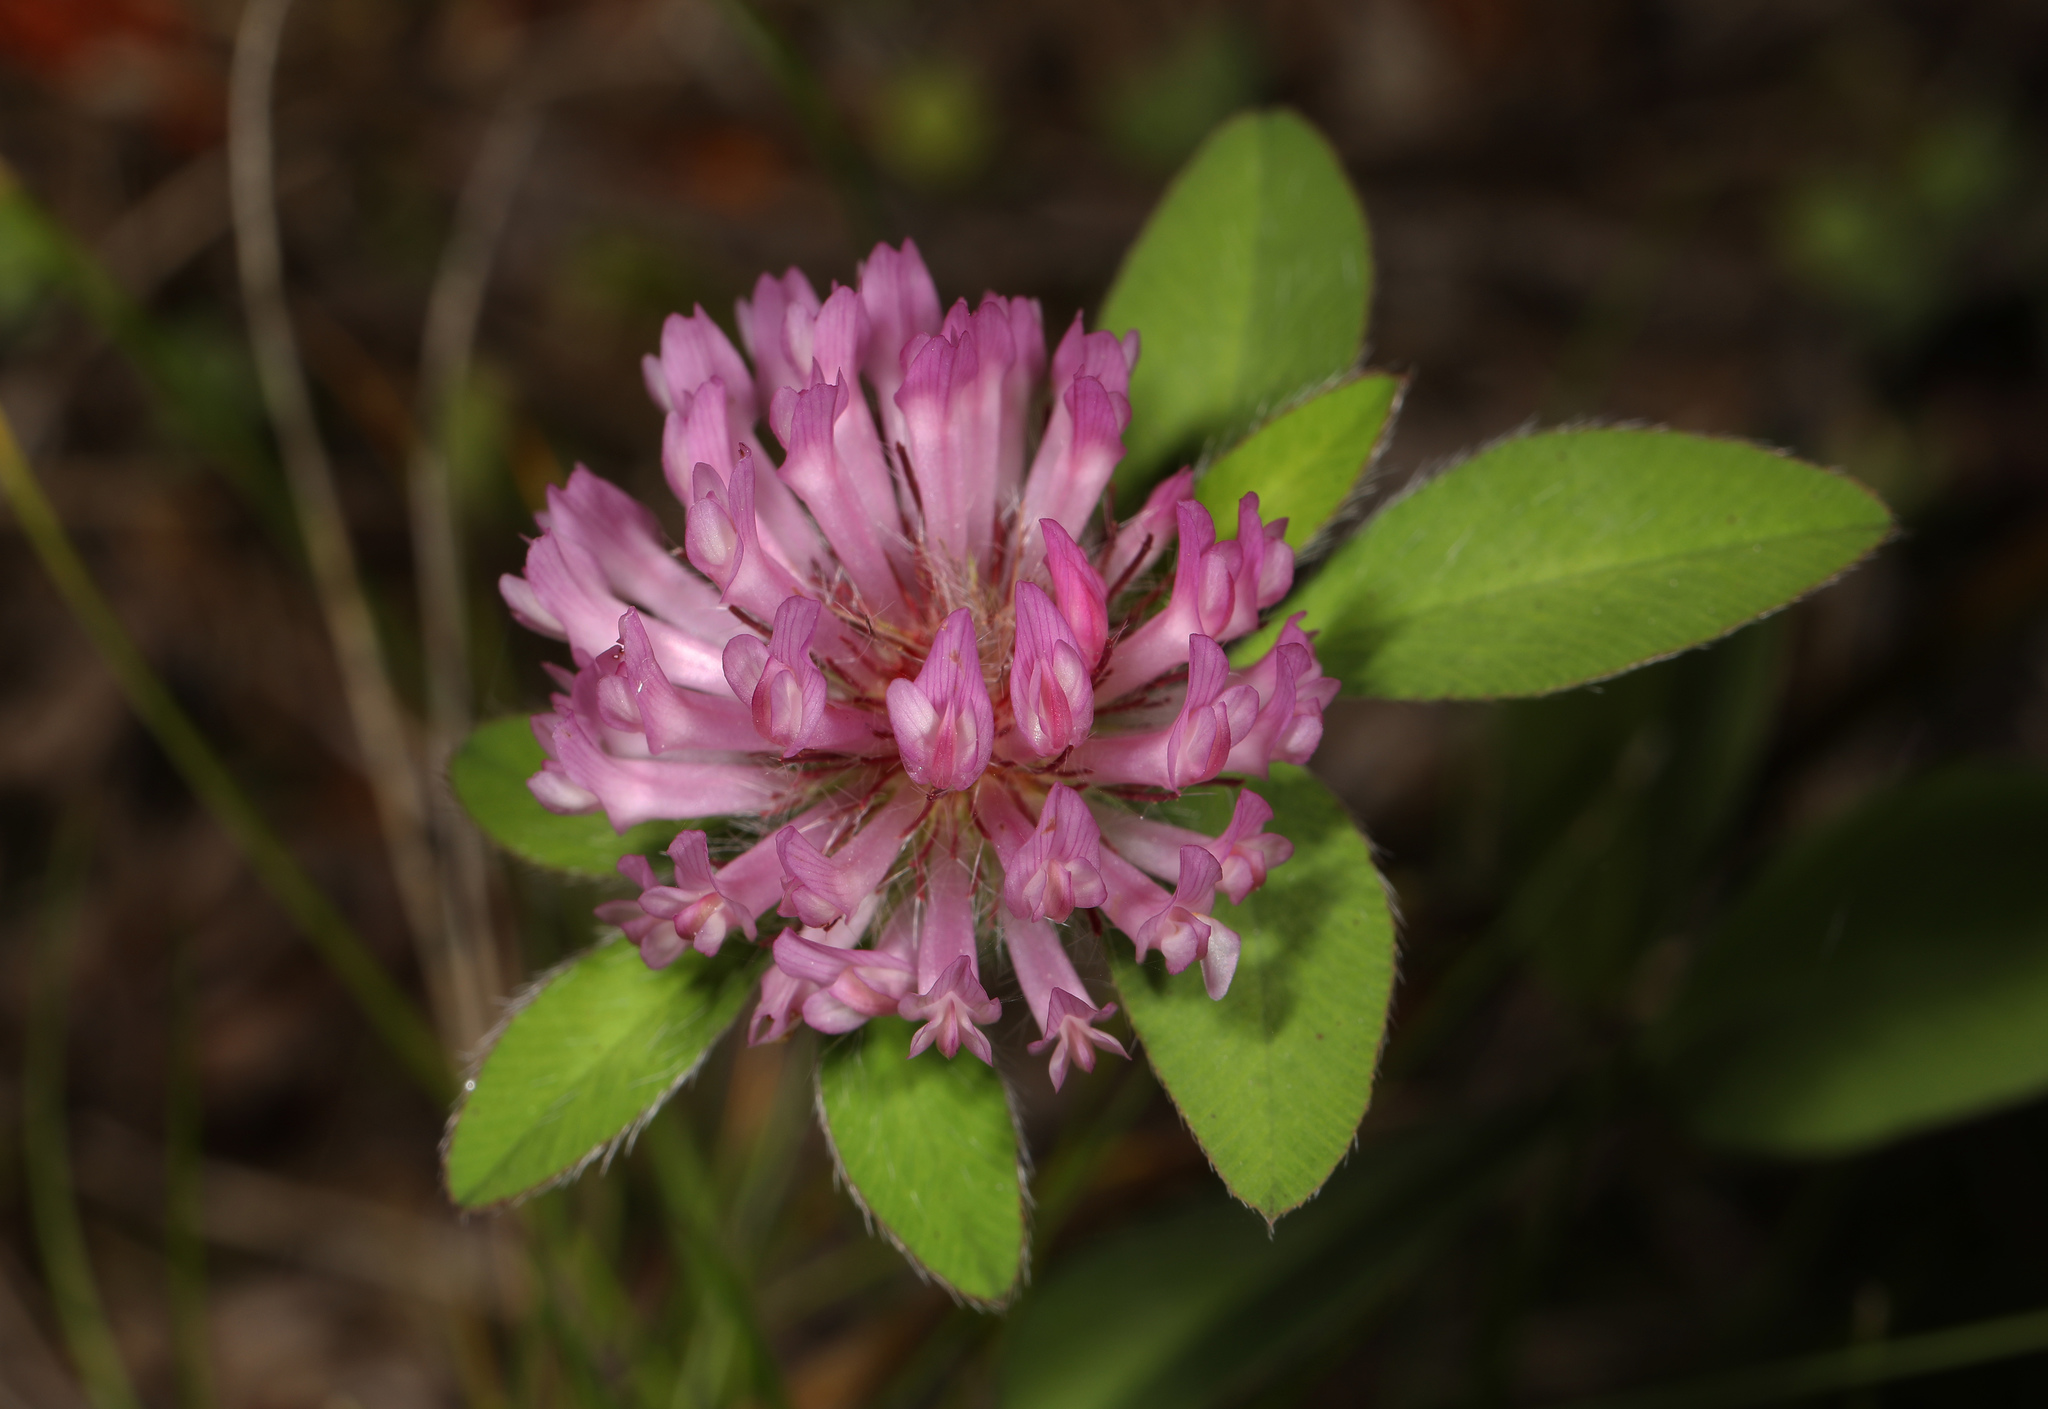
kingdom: Plantae
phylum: Tracheophyta
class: Magnoliopsida
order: Fabales
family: Fabaceae
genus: Trifolium
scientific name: Trifolium pratense
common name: Red clover
